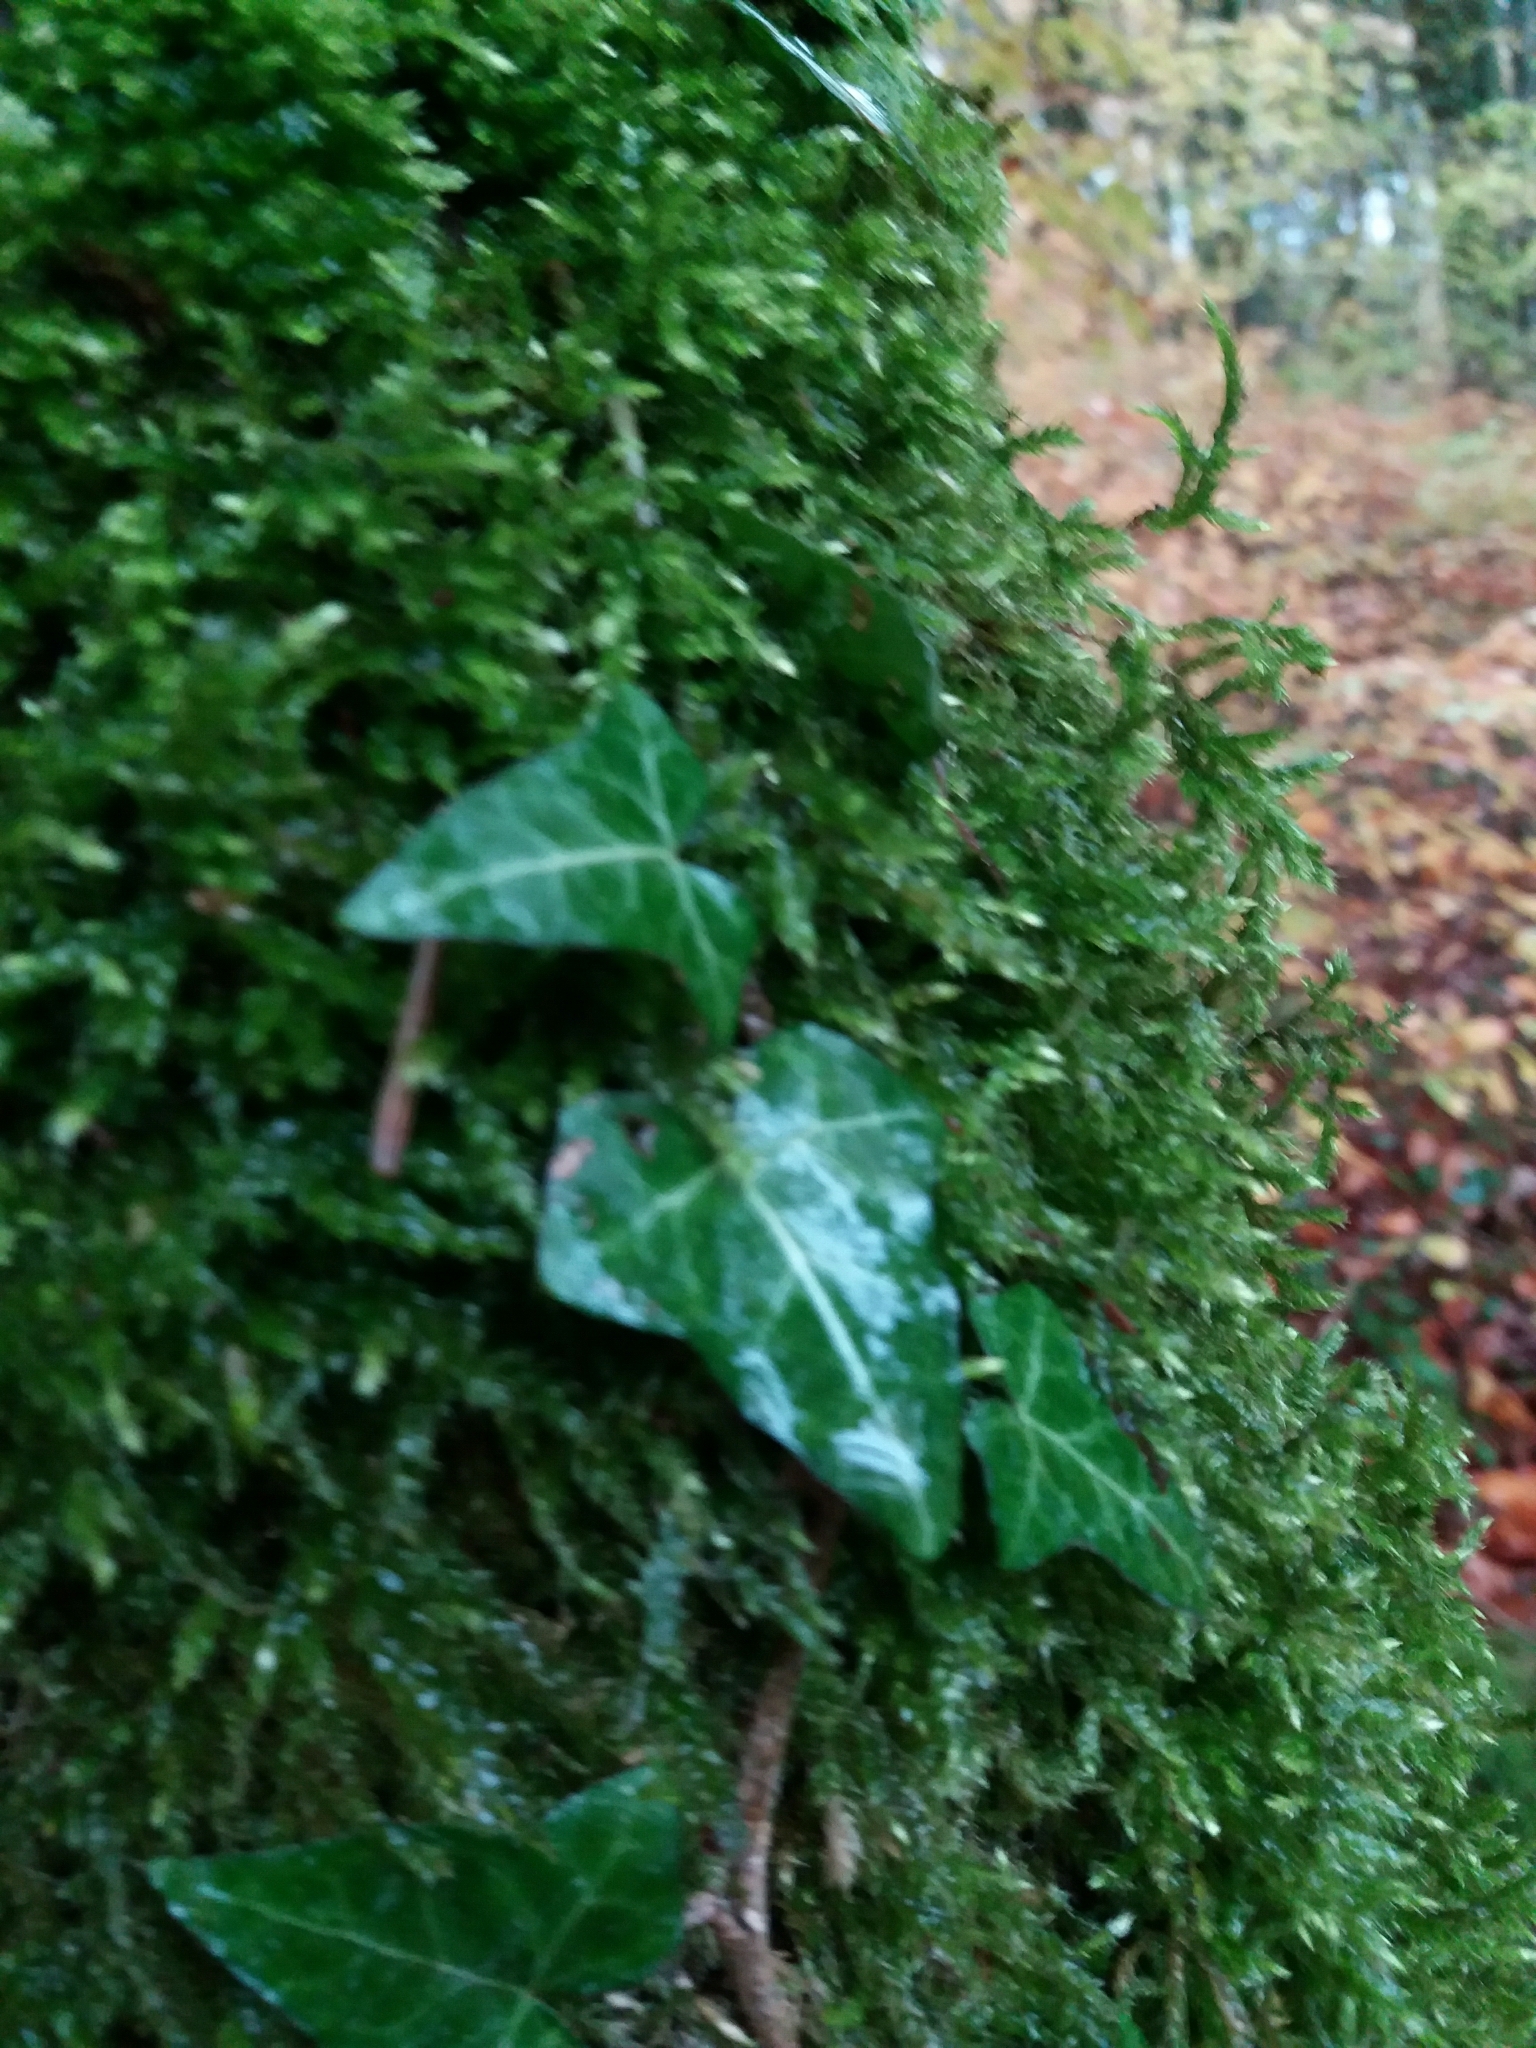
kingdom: Plantae
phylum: Tracheophyta
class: Magnoliopsida
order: Apiales
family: Araliaceae
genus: Hedera
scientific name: Hedera helix
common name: Ivy
